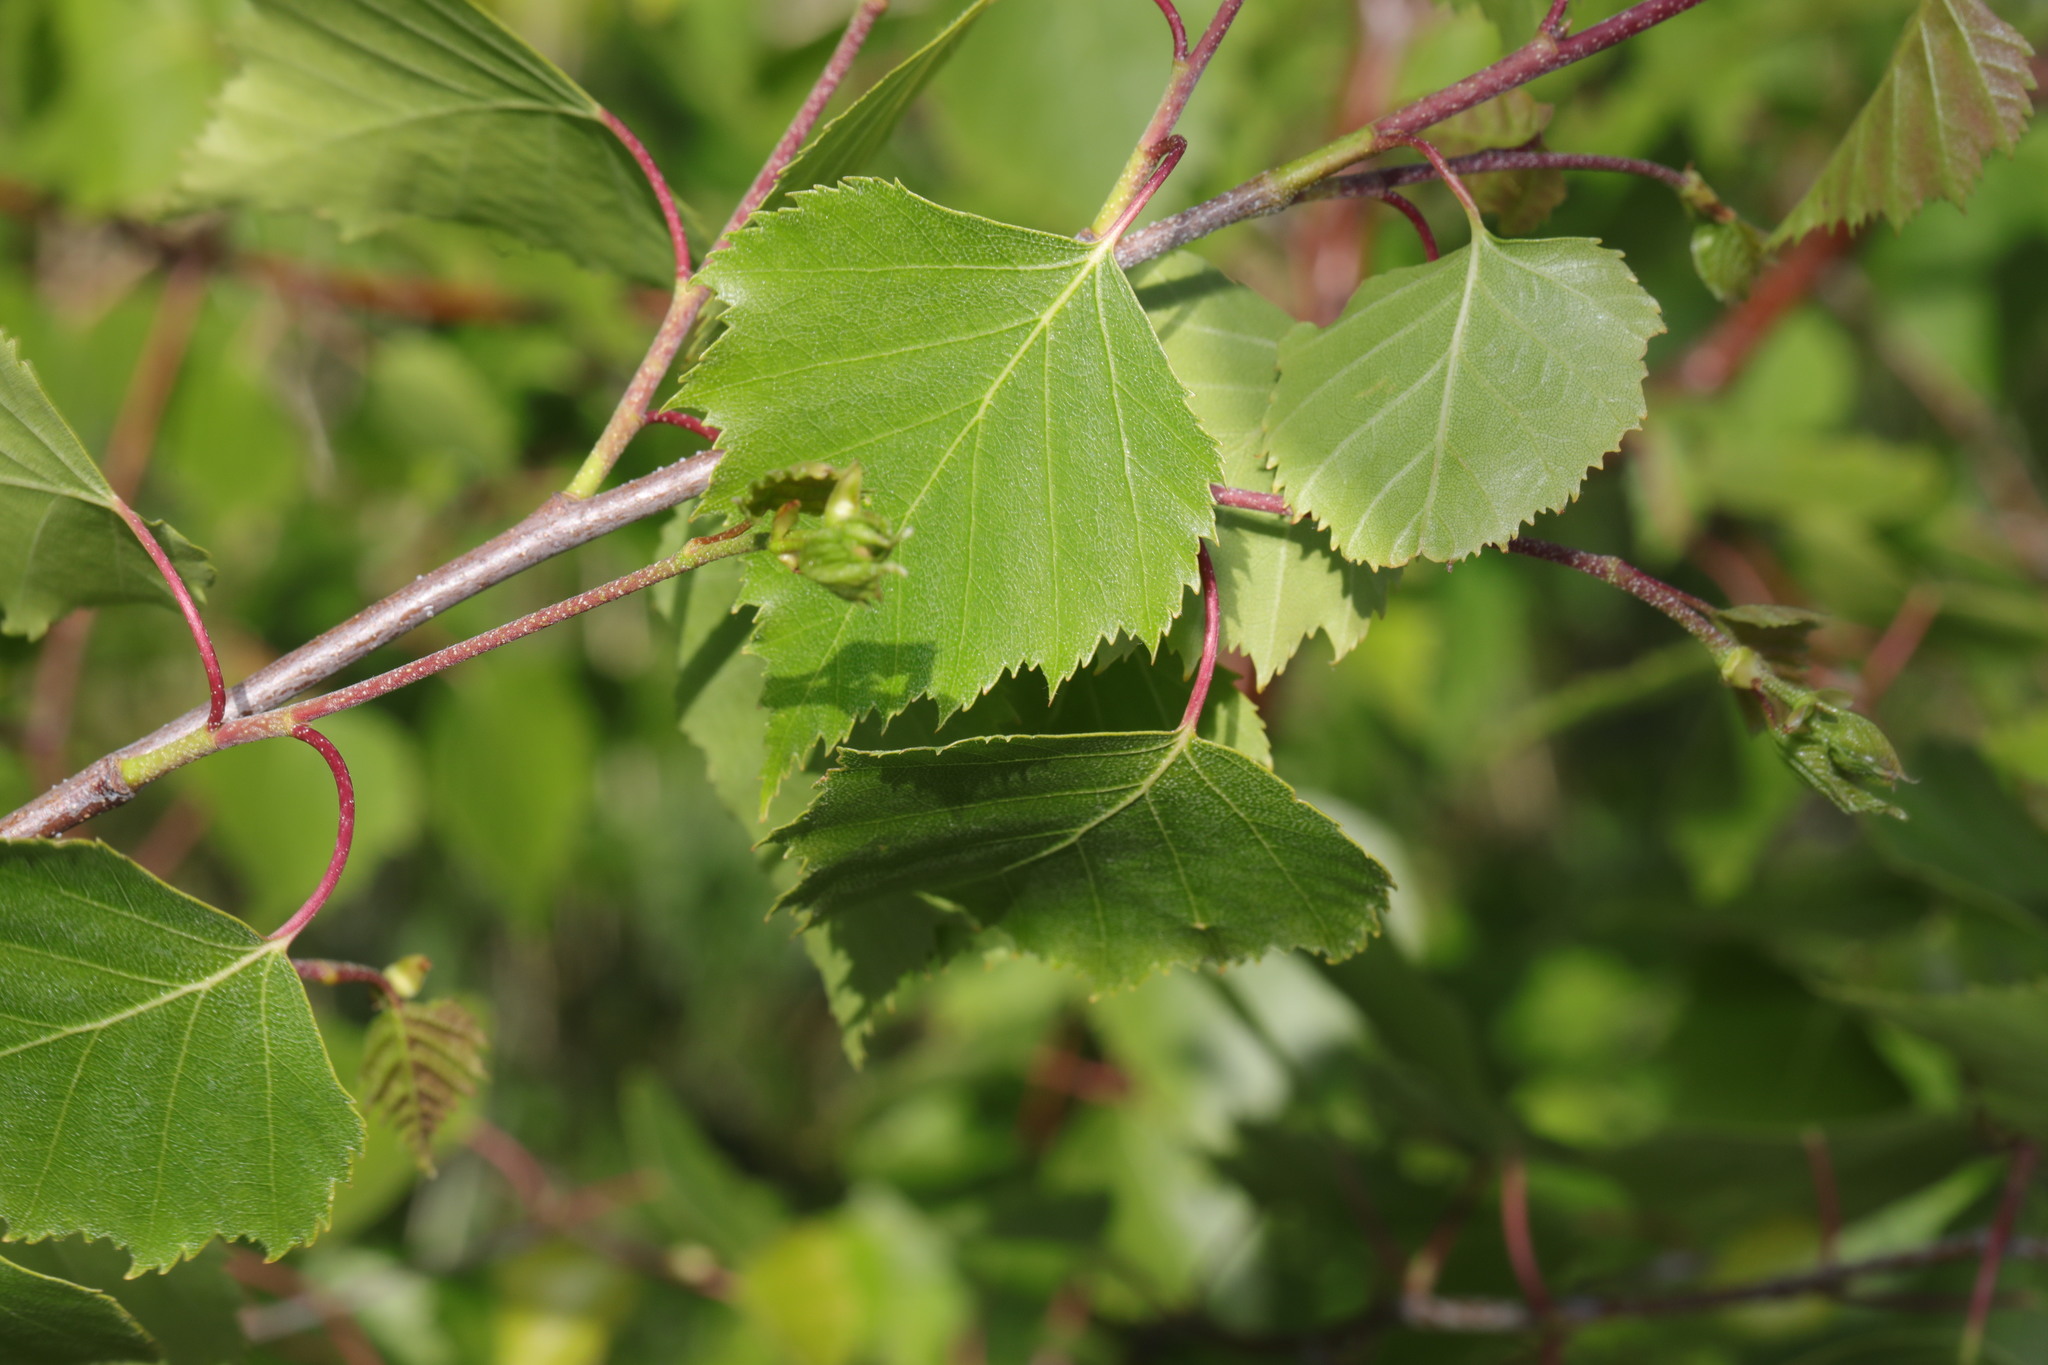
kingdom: Plantae
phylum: Tracheophyta
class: Magnoliopsida
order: Fagales
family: Betulaceae
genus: Betula
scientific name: Betula pendula
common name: Silver birch
